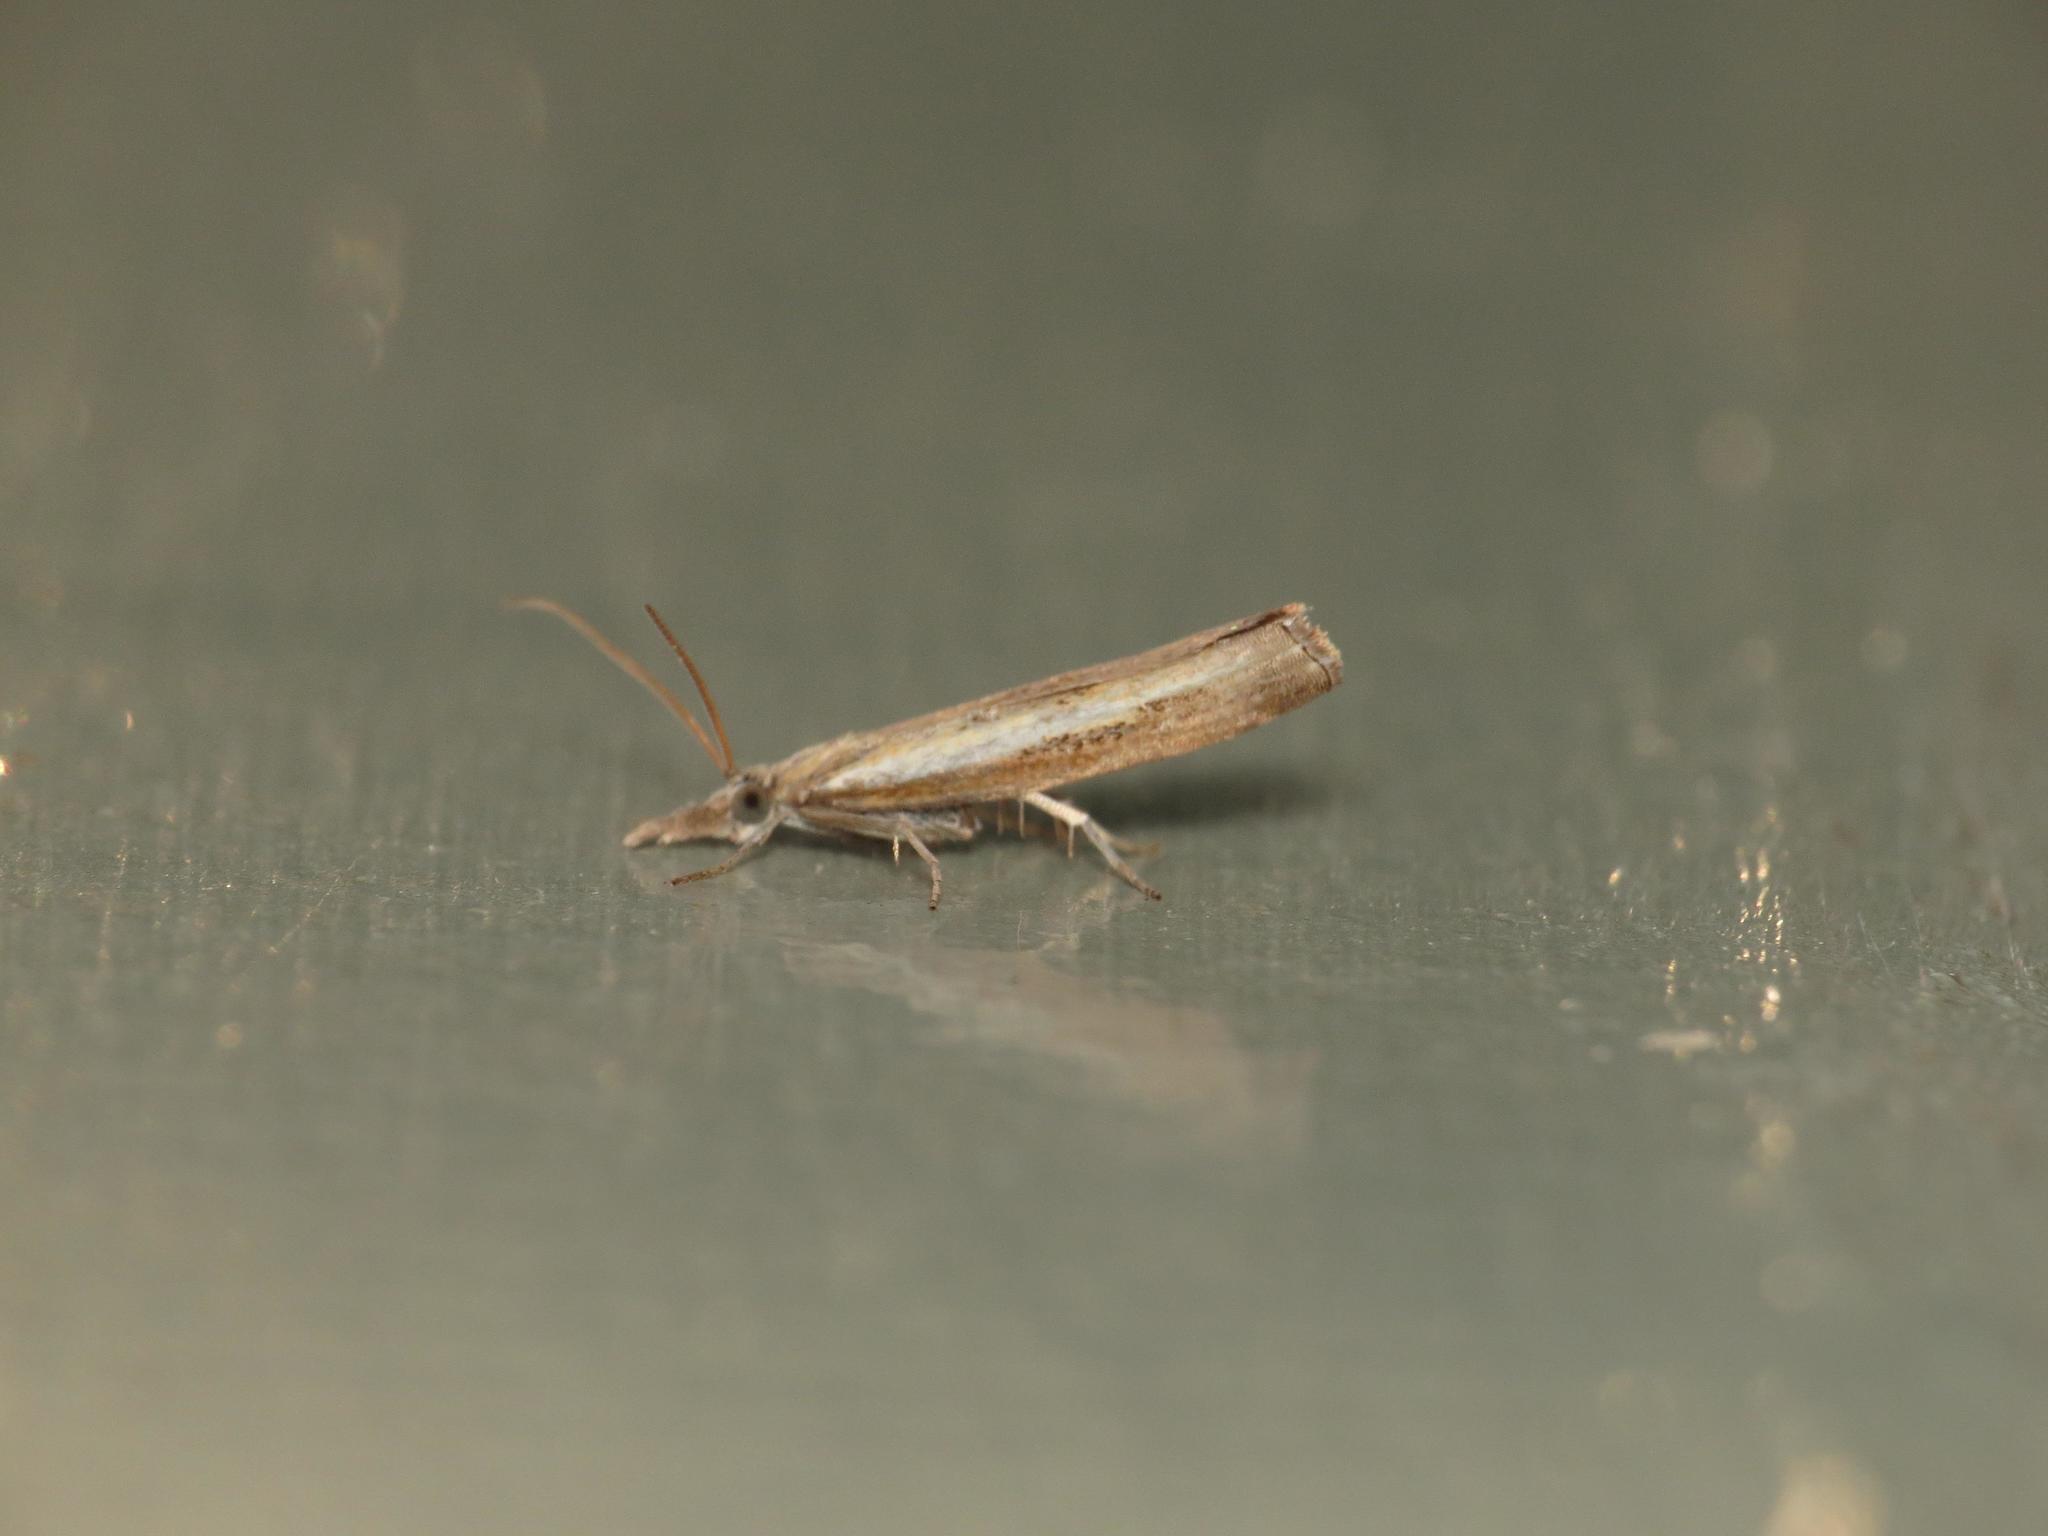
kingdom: Animalia
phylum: Arthropoda
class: Insecta
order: Lepidoptera
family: Crambidae
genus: Ptochostola
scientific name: Ptochostola microphaeellus
